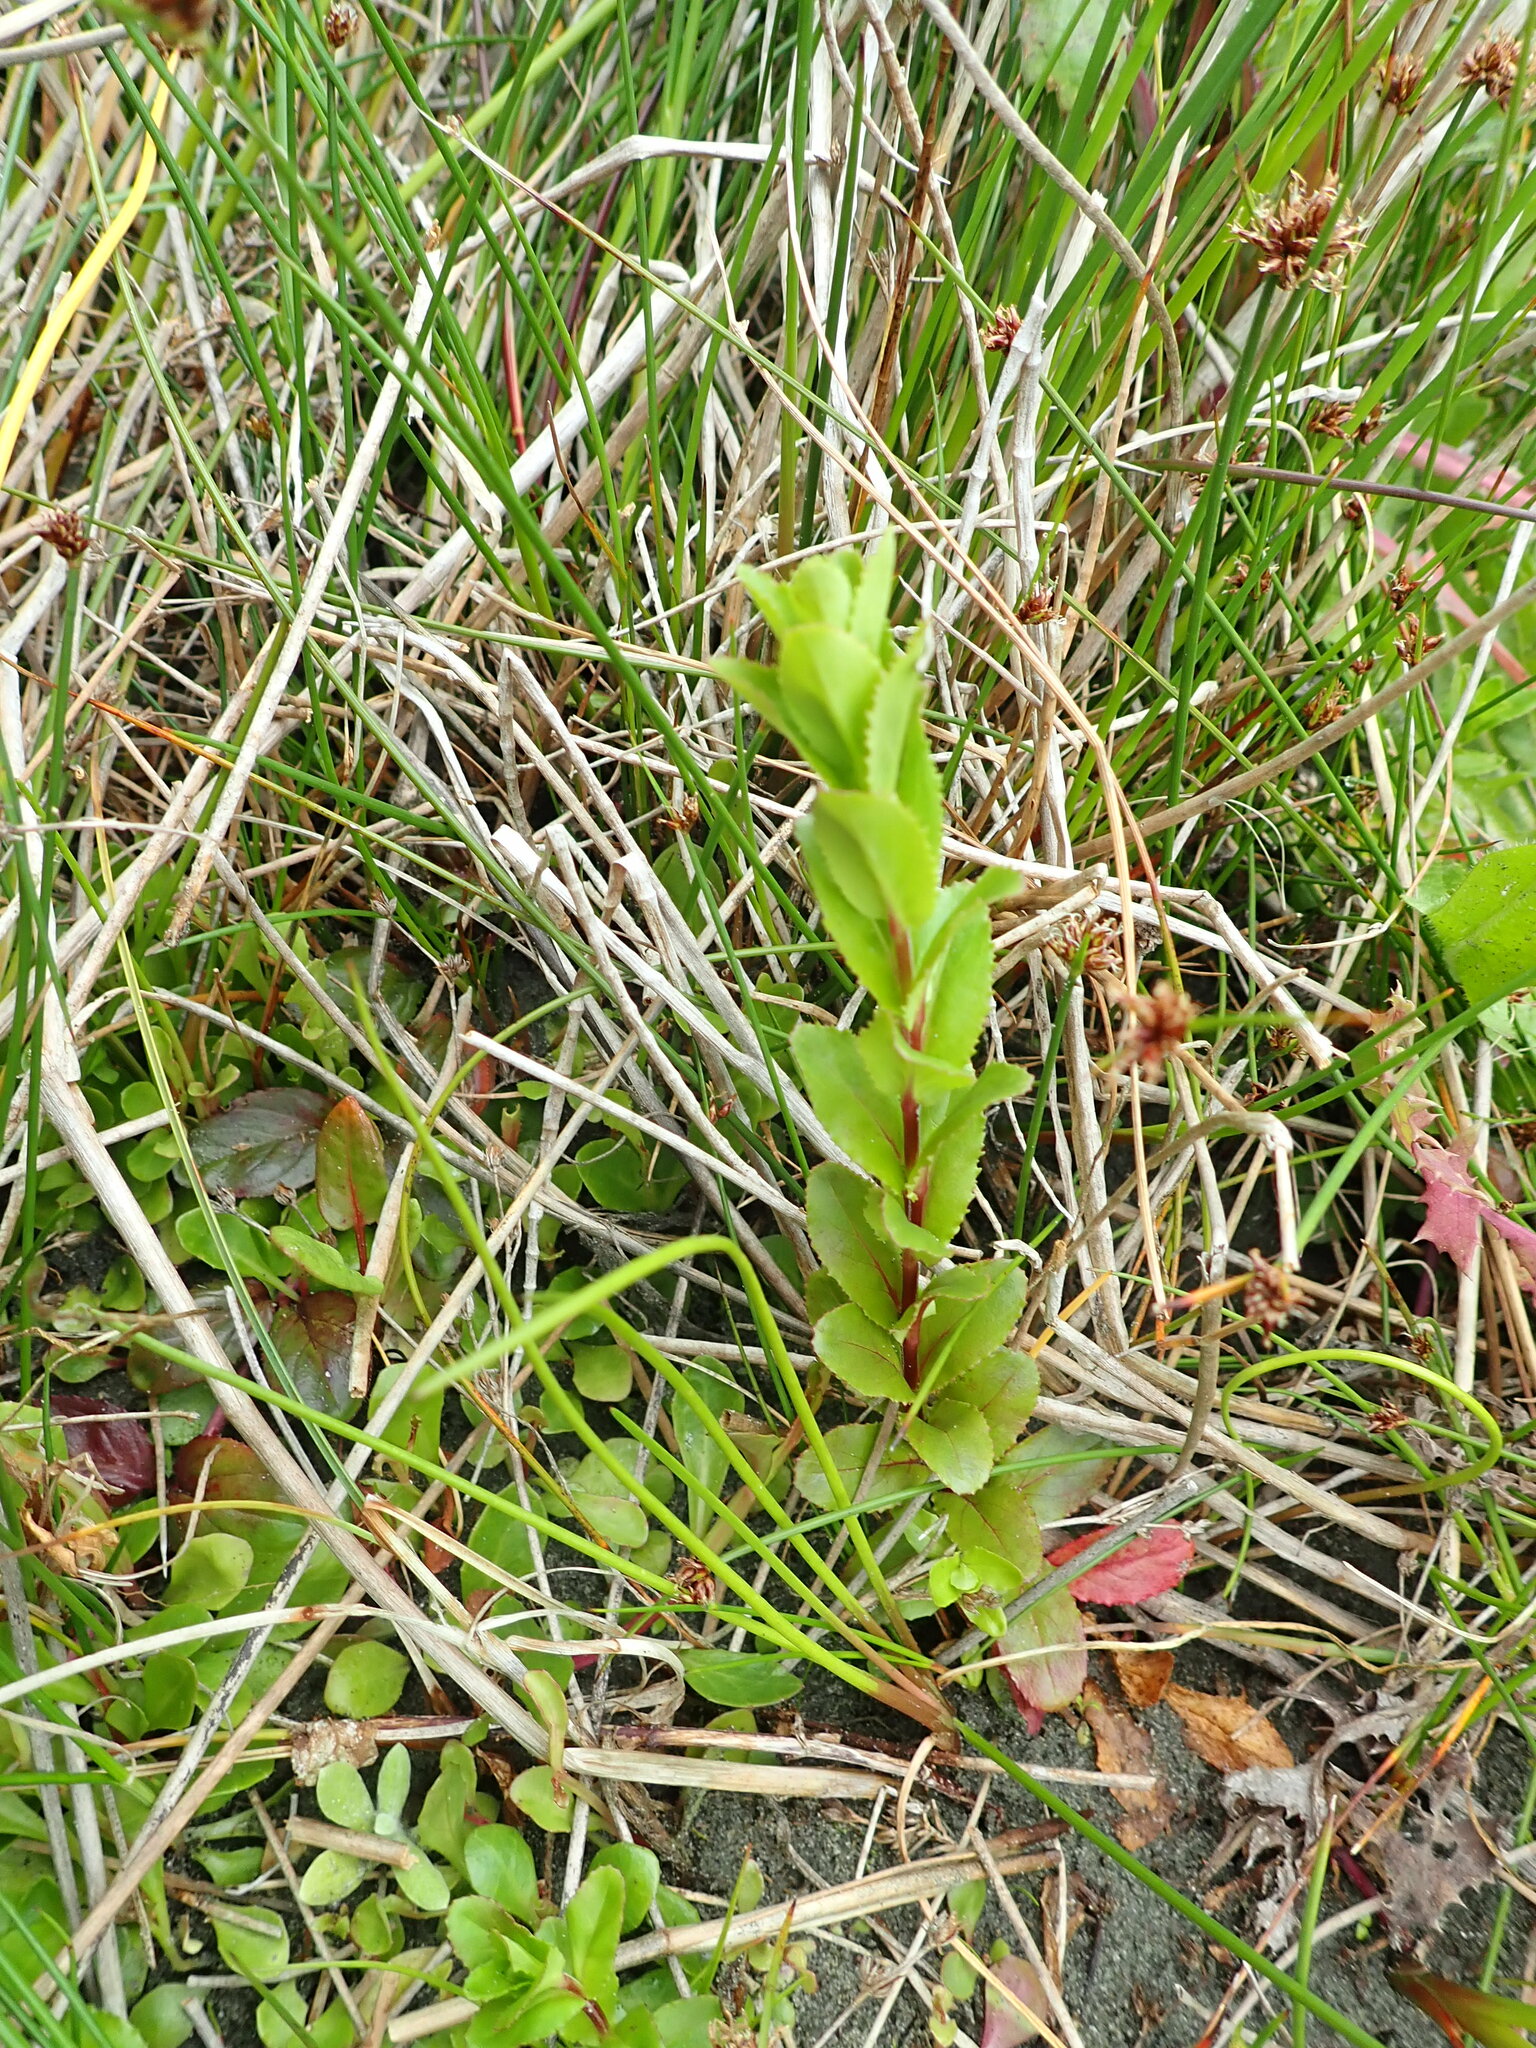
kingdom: Plantae
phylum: Tracheophyta
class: Magnoliopsida
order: Myrtales
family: Onagraceae
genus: Epilobium
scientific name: Epilobium billardiereanum
